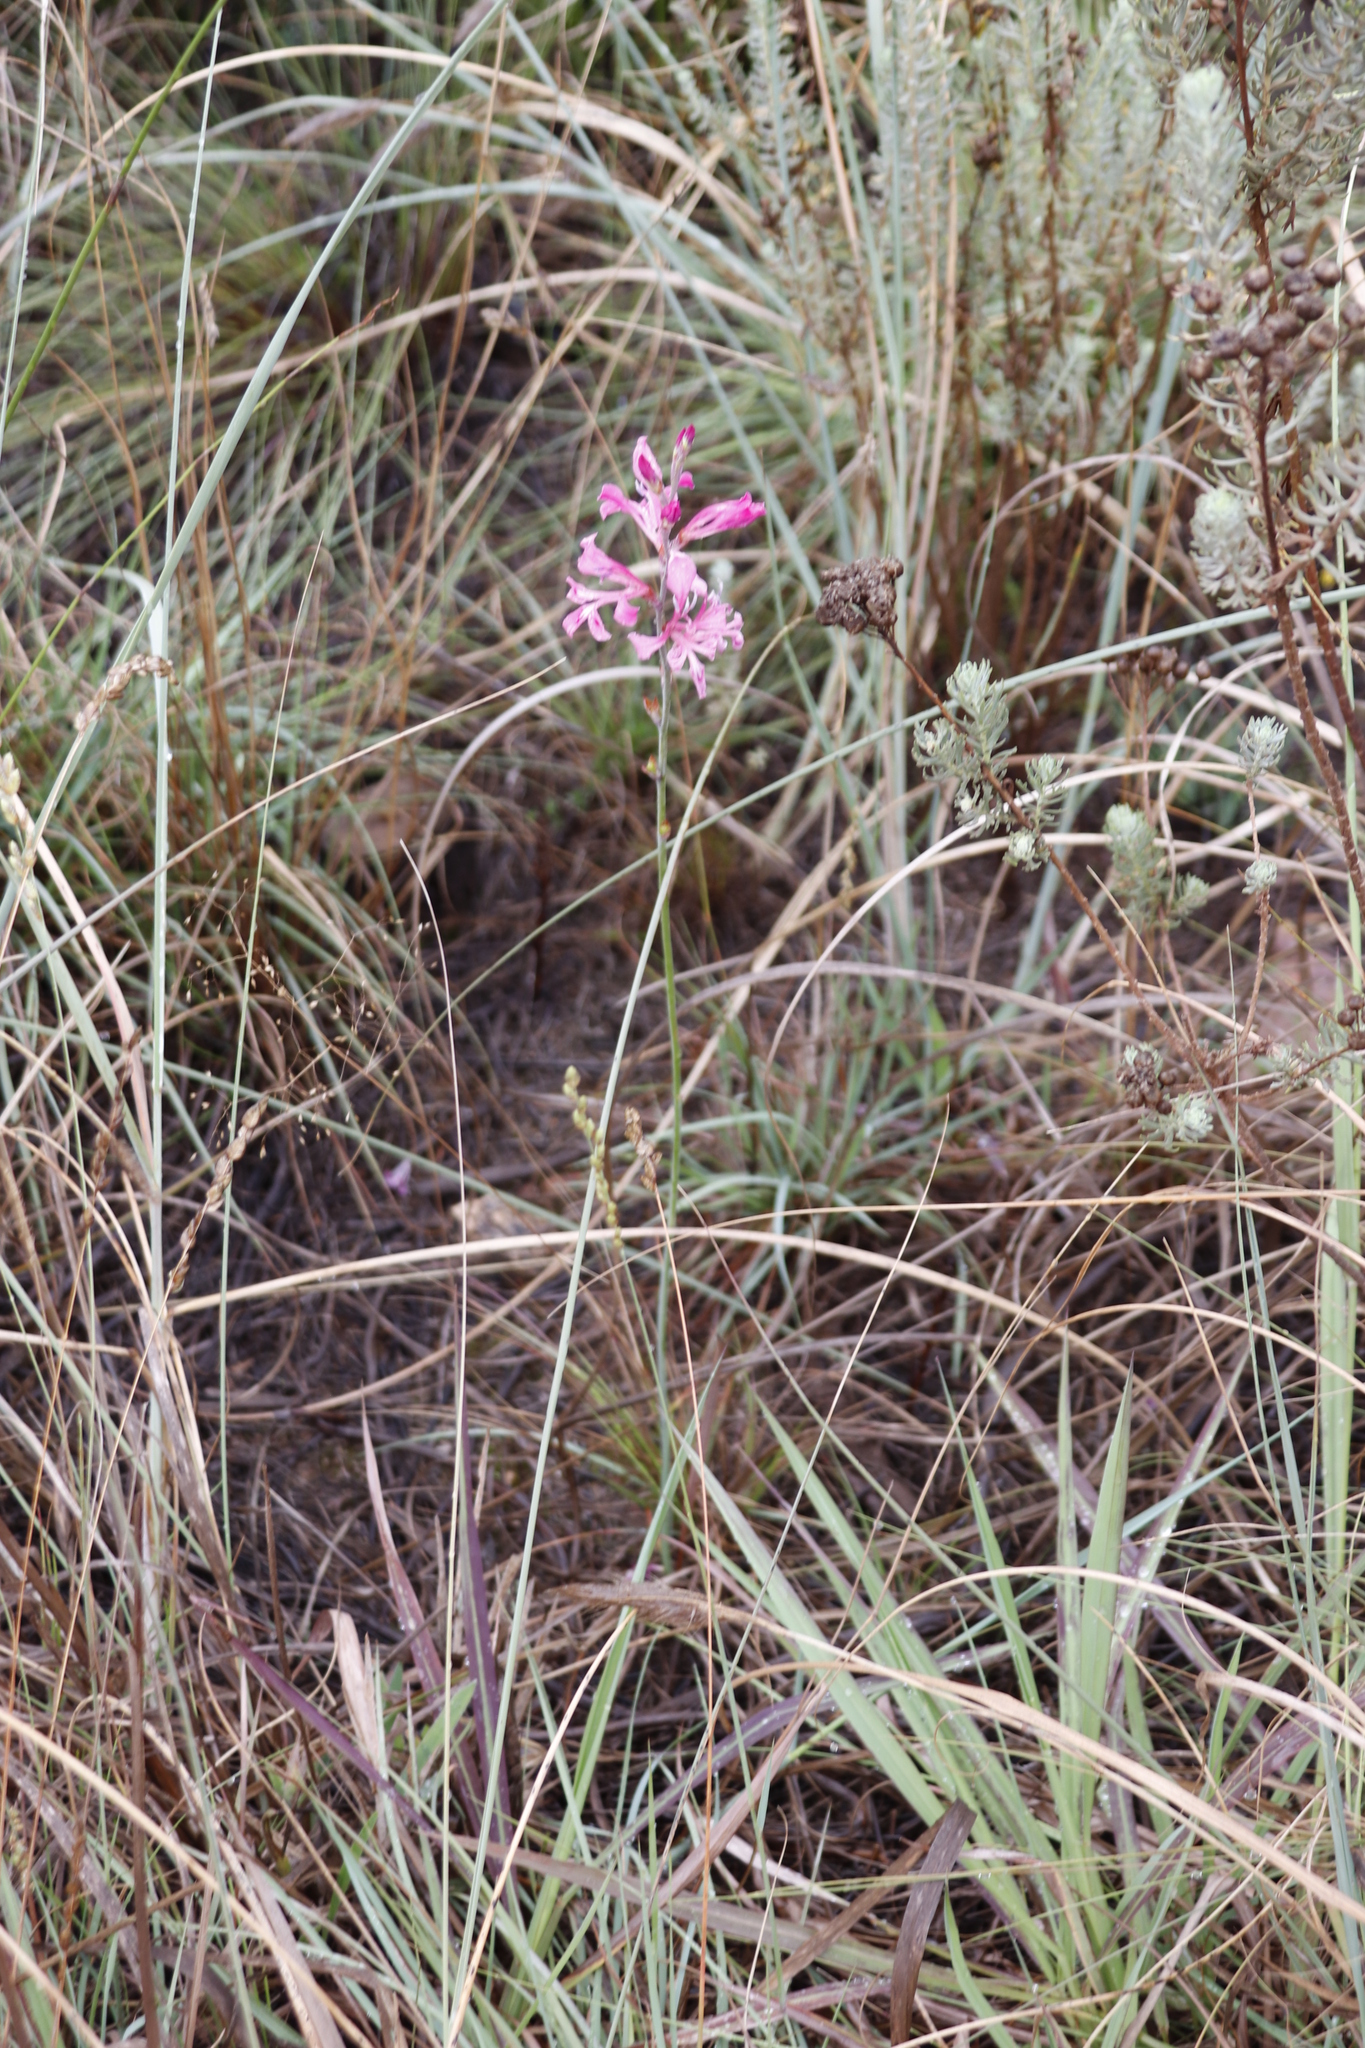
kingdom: Plantae
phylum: Tracheophyta
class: Liliopsida
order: Asparagales
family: Iridaceae
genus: Tritoniopsis
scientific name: Tritoniopsis lata
